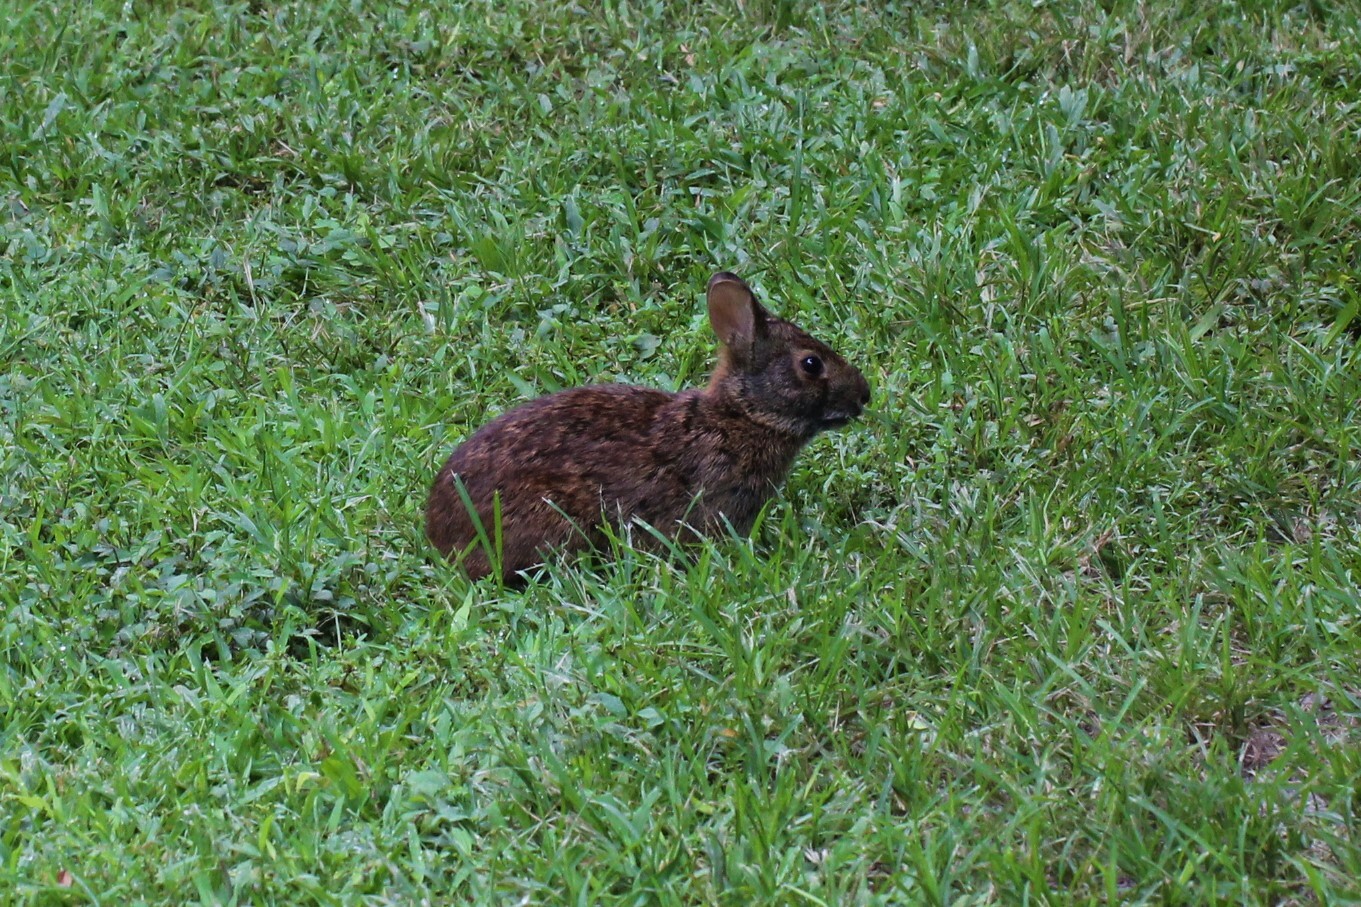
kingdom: Animalia
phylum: Chordata
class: Mammalia
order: Lagomorpha
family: Leporidae
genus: Sylvilagus
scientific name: Sylvilagus palustris
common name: Marsh rabbit
